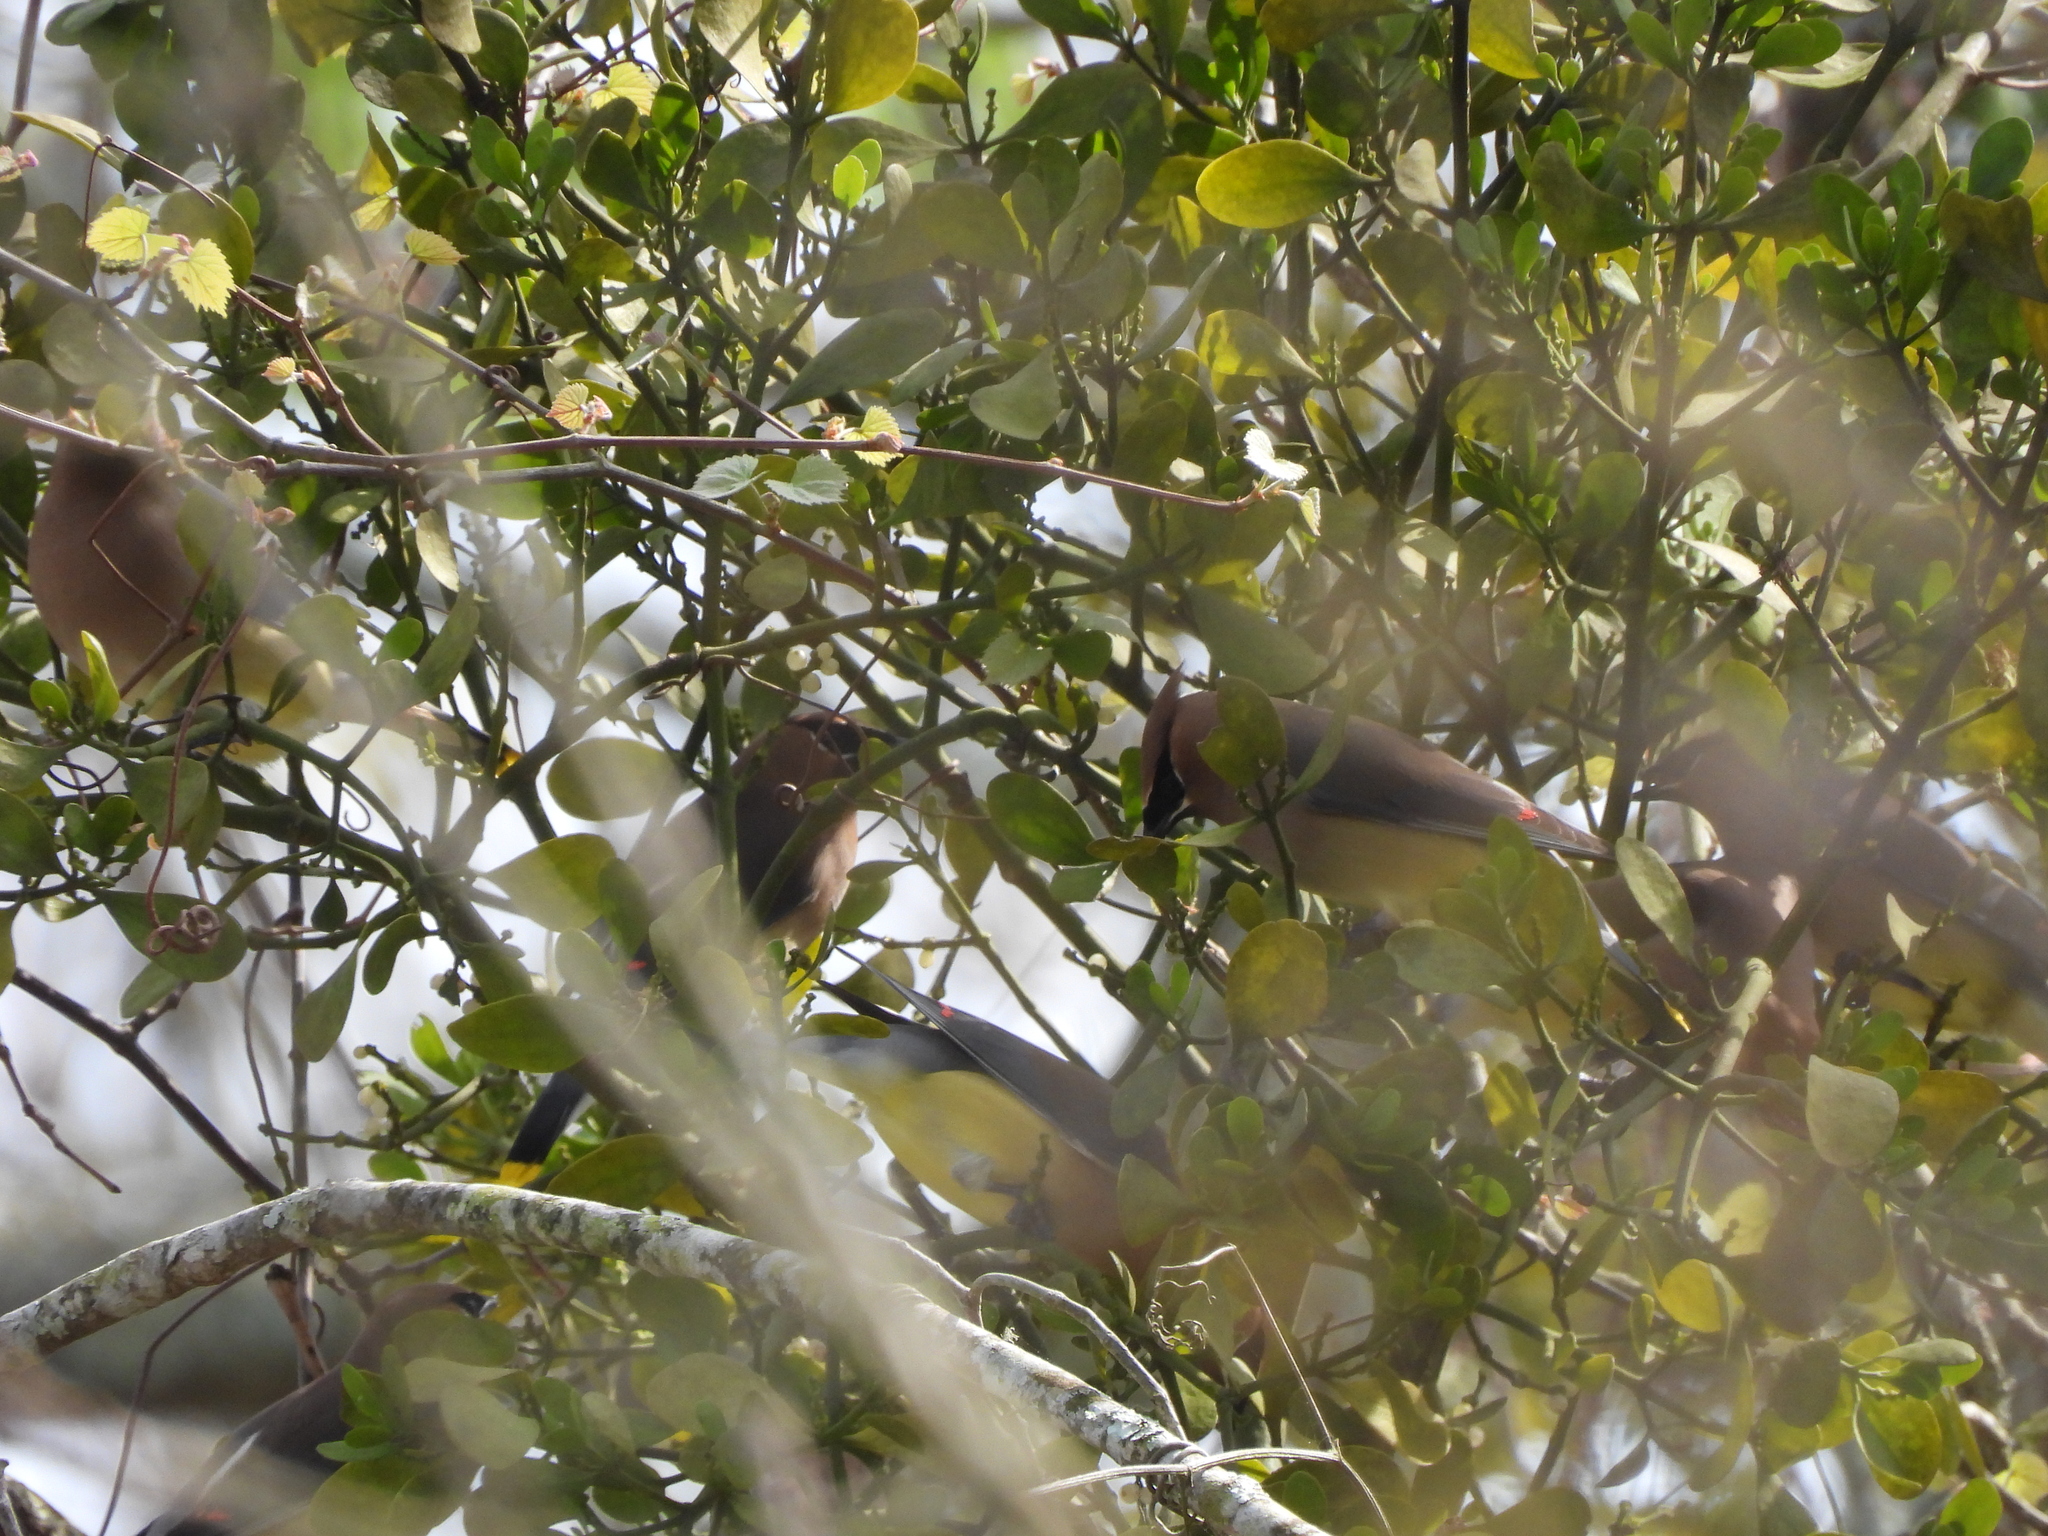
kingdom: Plantae
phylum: Tracheophyta
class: Magnoliopsida
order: Santalales
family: Viscaceae
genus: Phoradendron
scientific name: Phoradendron leucarpum
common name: Pacific mistletoe
